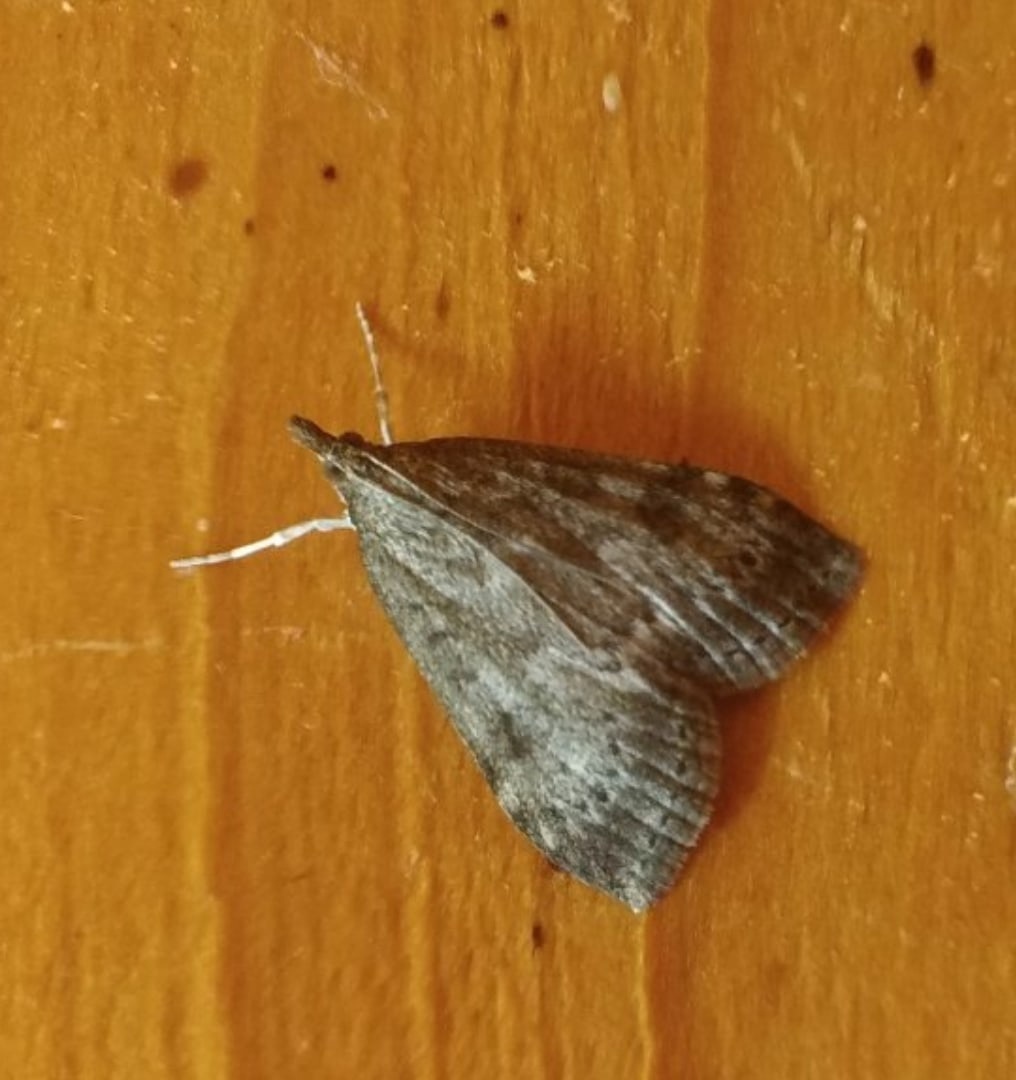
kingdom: Animalia
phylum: Arthropoda
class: Insecta
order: Lepidoptera
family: Crambidae
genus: Udea
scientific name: Udea prunalis
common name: Dusky pearl
